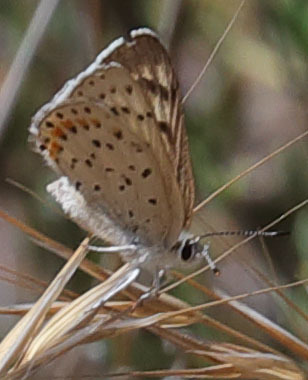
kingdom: Animalia
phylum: Arthropoda
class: Insecta
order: Lepidoptera
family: Lycaenidae
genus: Tharsalea
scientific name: Tharsalea gorgon
